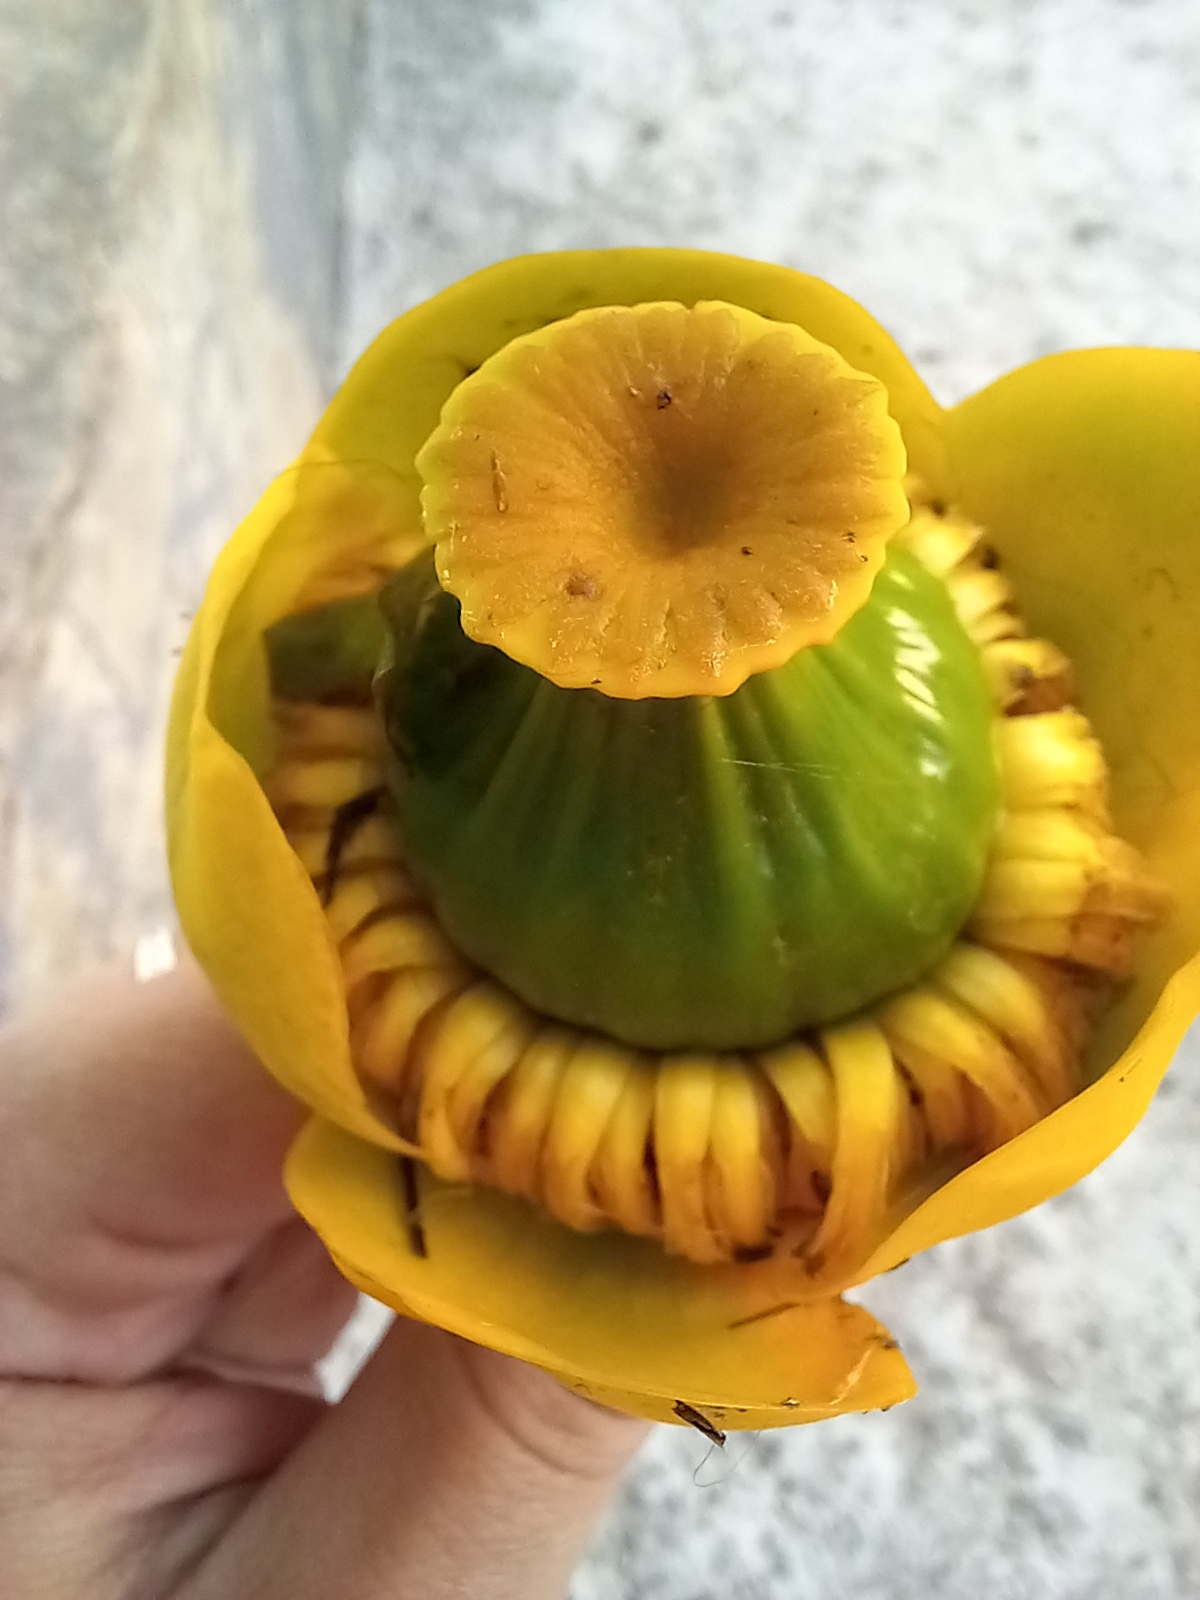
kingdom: Plantae
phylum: Tracheophyta
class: Magnoliopsida
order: Nymphaeales
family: Nymphaeaceae
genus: Nuphar
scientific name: Nuphar lutea
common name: Yellow water-lily
